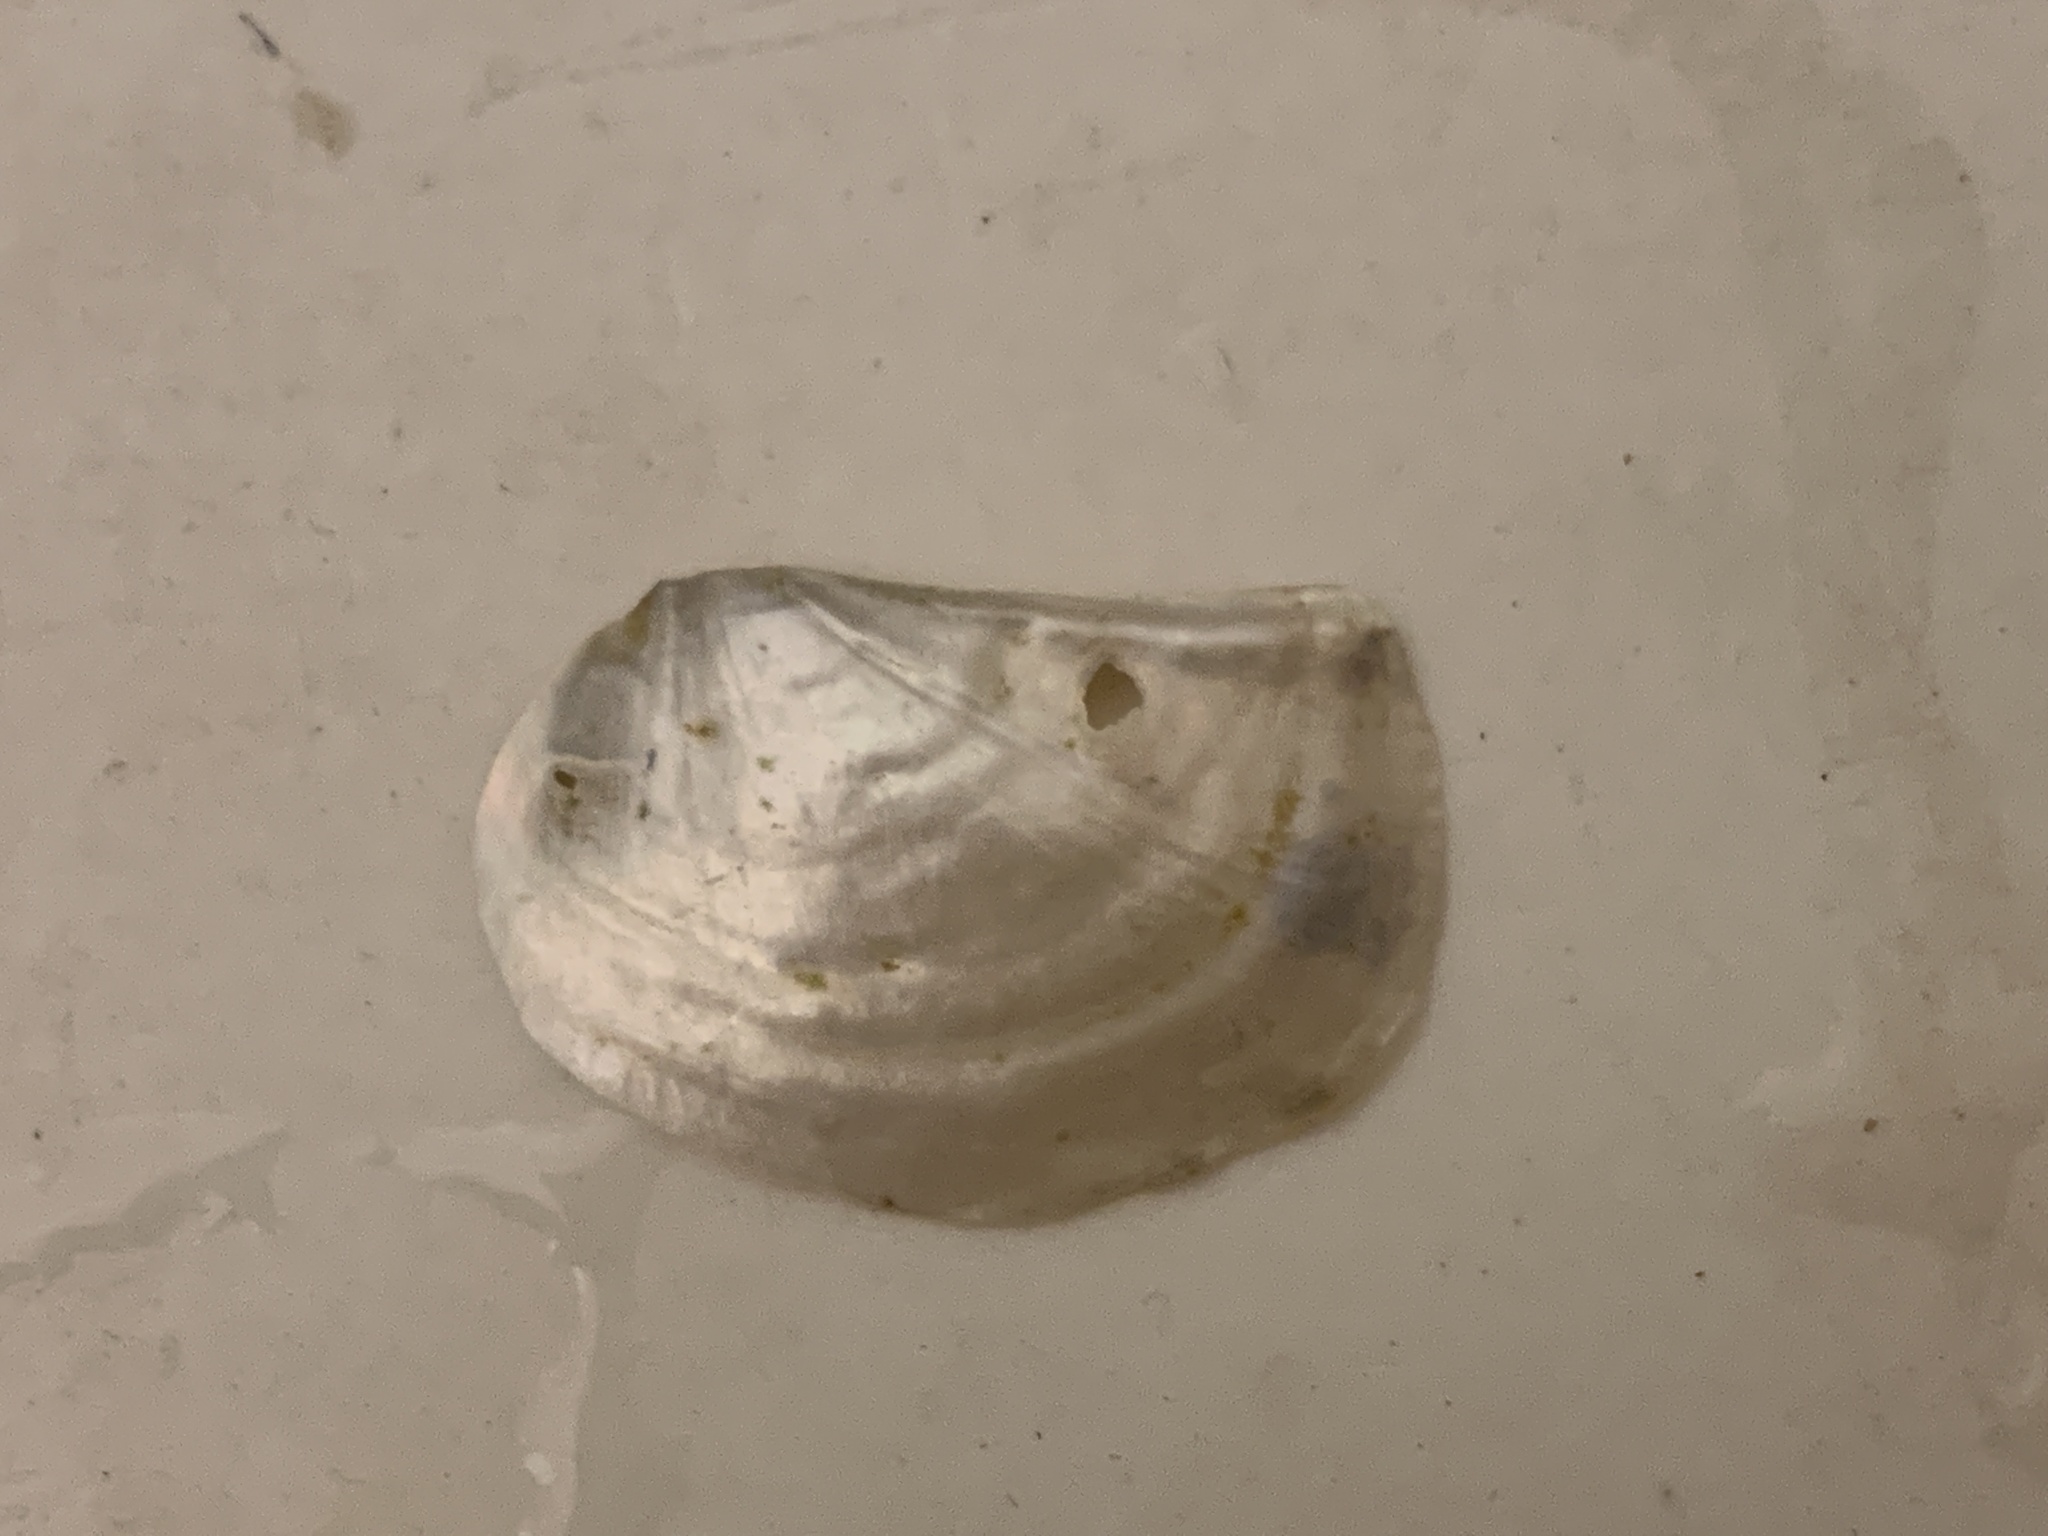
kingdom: Animalia
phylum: Mollusca
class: Bivalvia
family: Pandoridae
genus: Pandora
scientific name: Pandora gouldiana
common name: Rounded pandora
